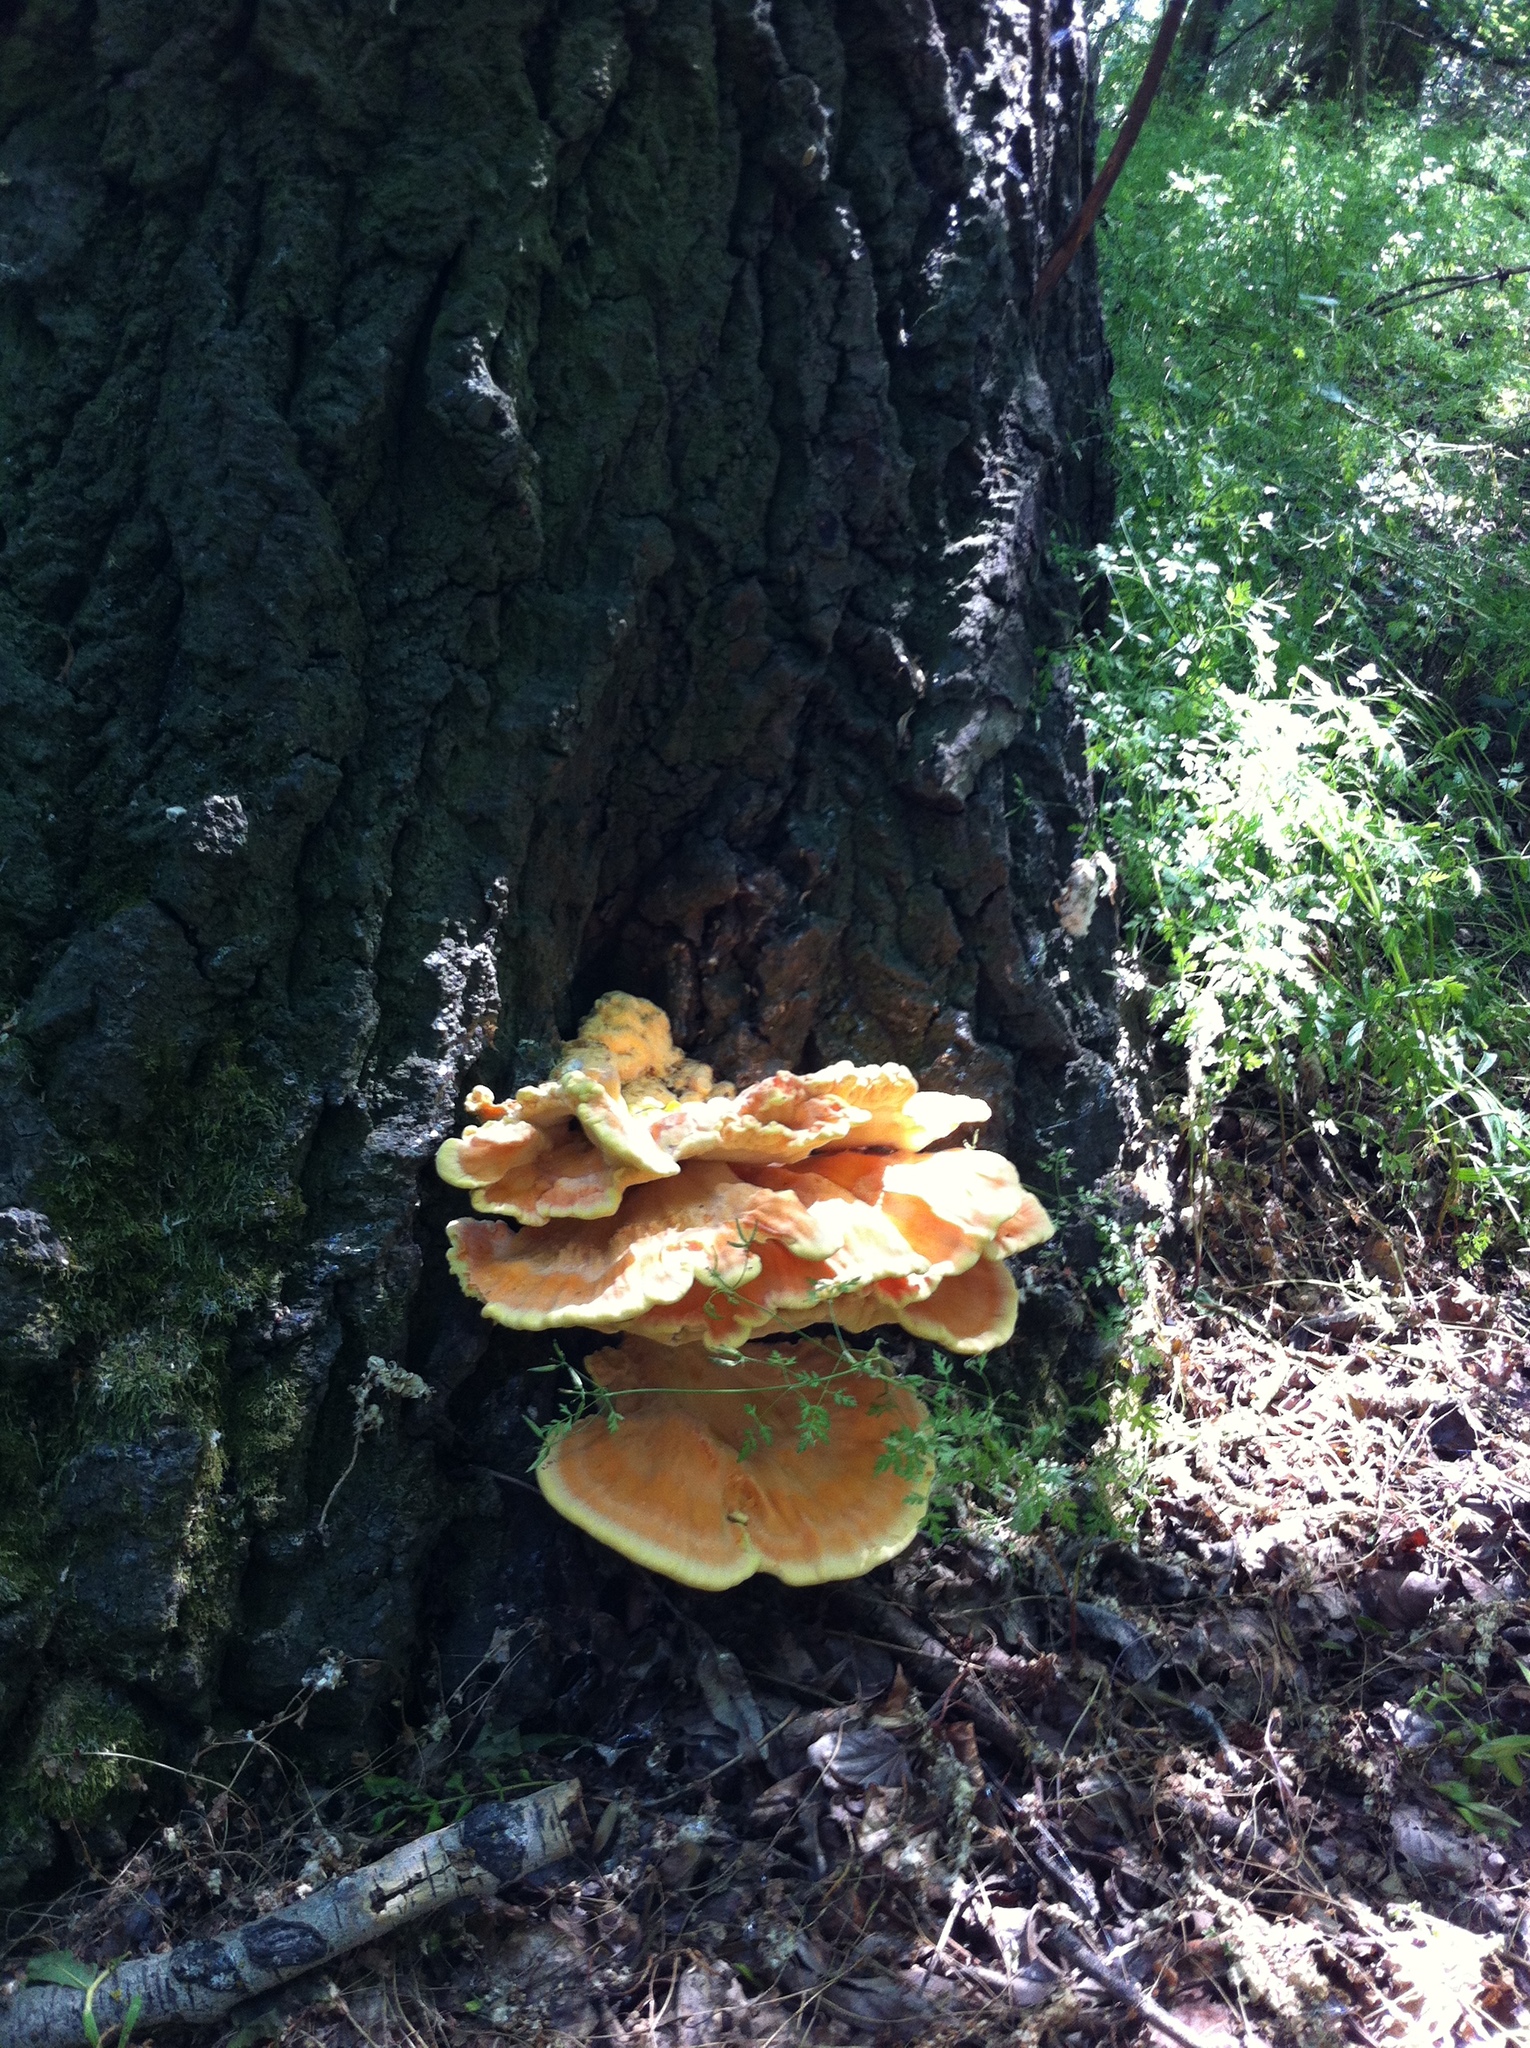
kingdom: Fungi
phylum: Basidiomycota
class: Agaricomycetes
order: Polyporales
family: Laetiporaceae
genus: Laetiporus
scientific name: Laetiporus sulphureus
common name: Chicken of the woods
